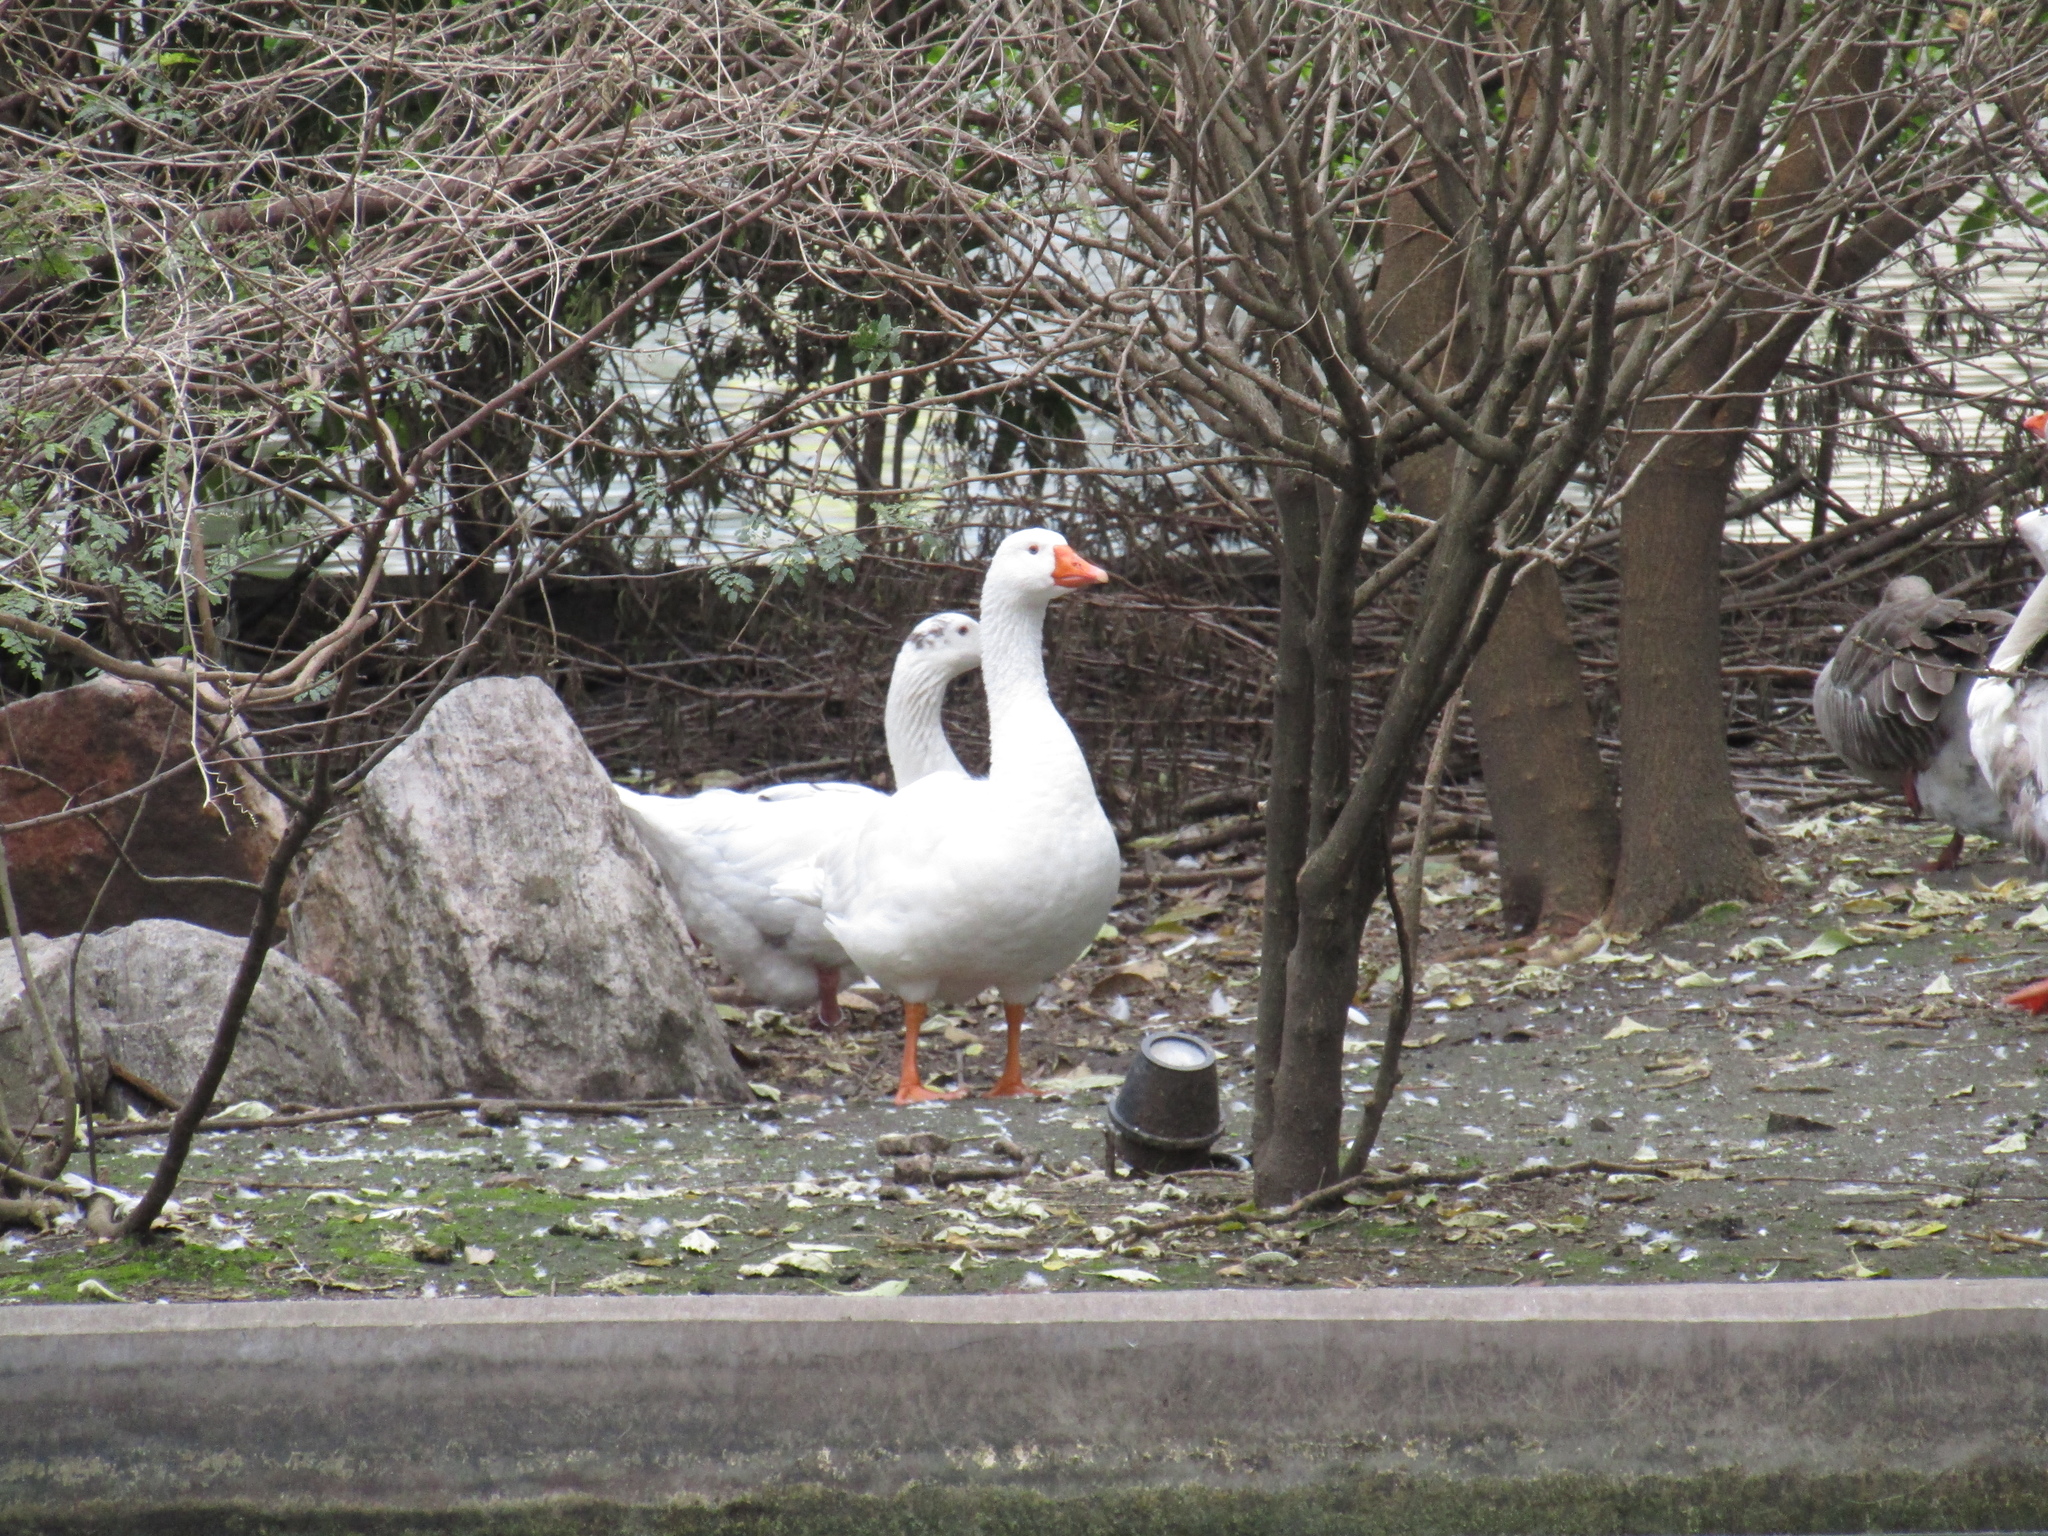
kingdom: Animalia
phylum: Chordata
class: Aves
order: Anseriformes
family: Anatidae
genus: Anser
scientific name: Anser anser
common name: Greylag goose
